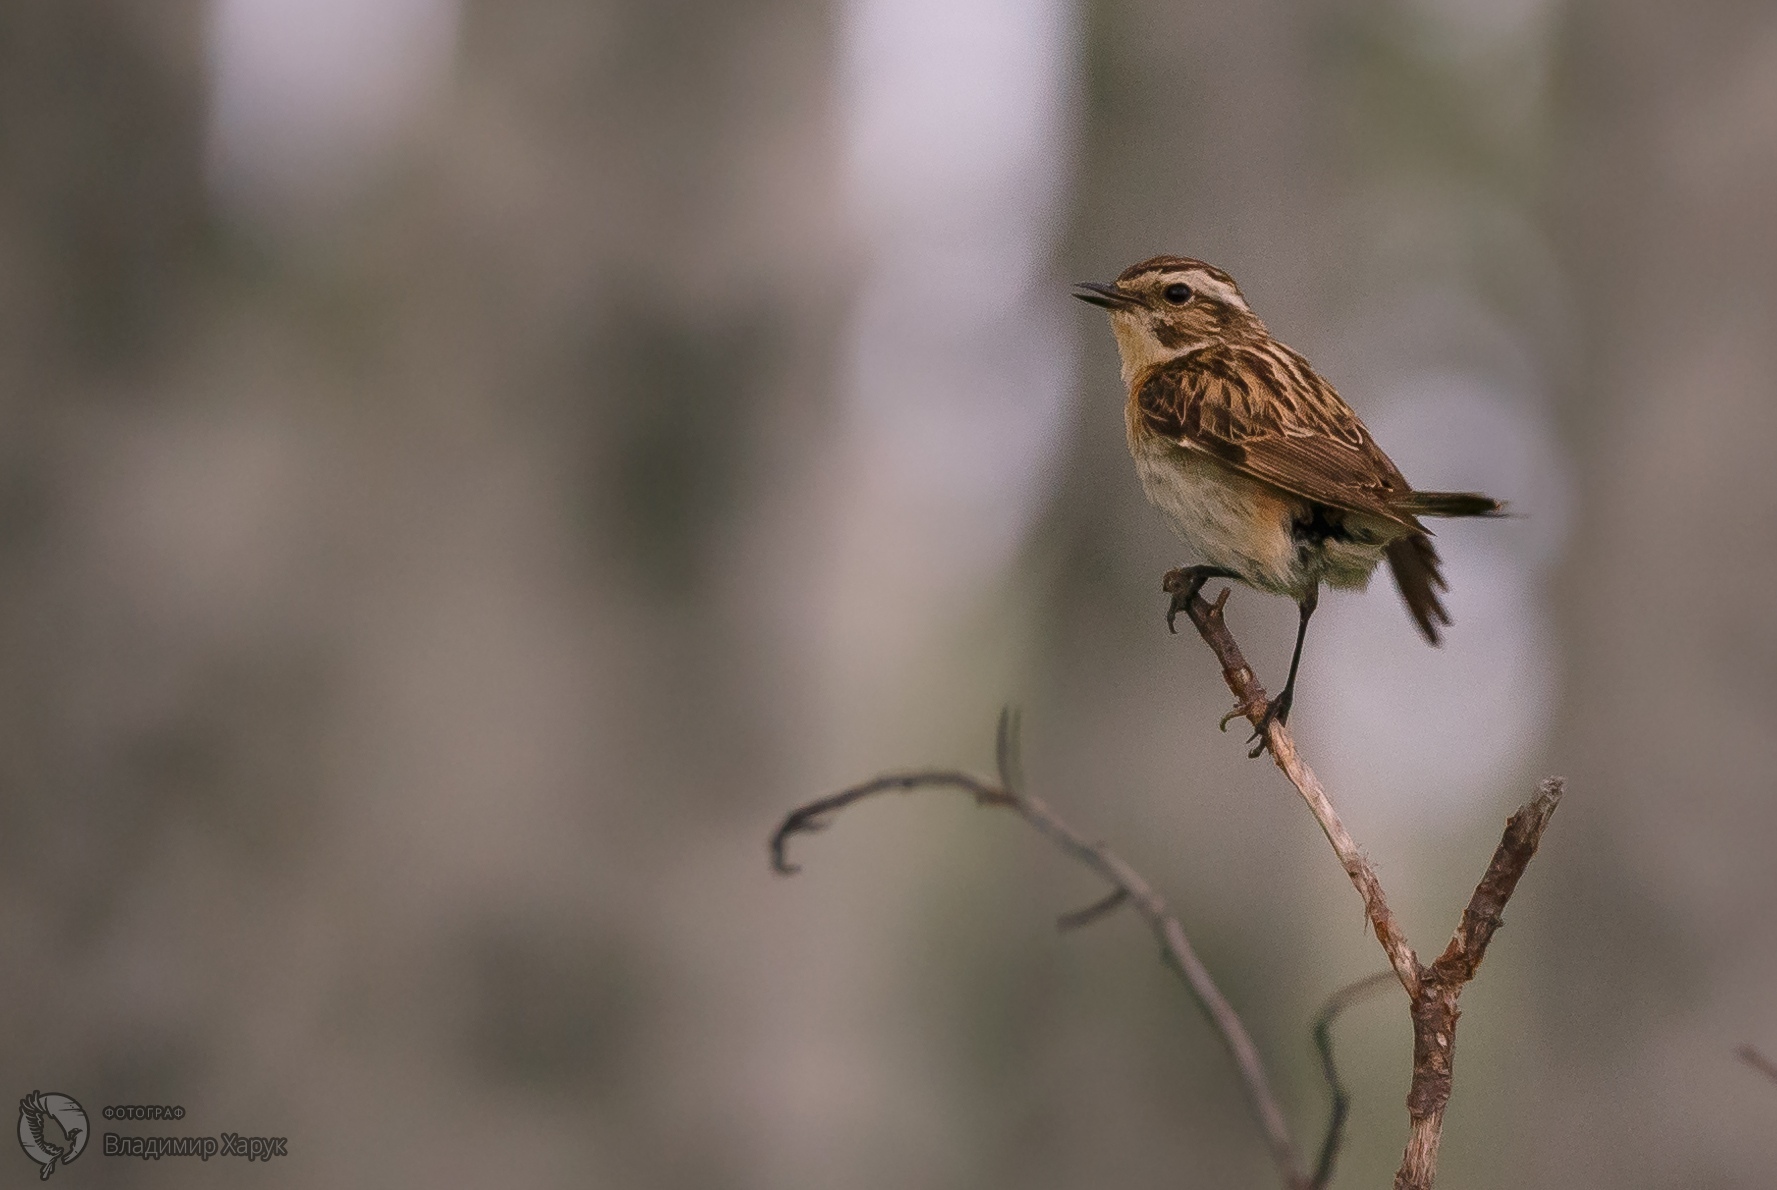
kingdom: Animalia
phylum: Chordata
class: Aves
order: Passeriformes
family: Muscicapidae
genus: Saxicola
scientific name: Saxicola rubetra
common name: Whinchat
